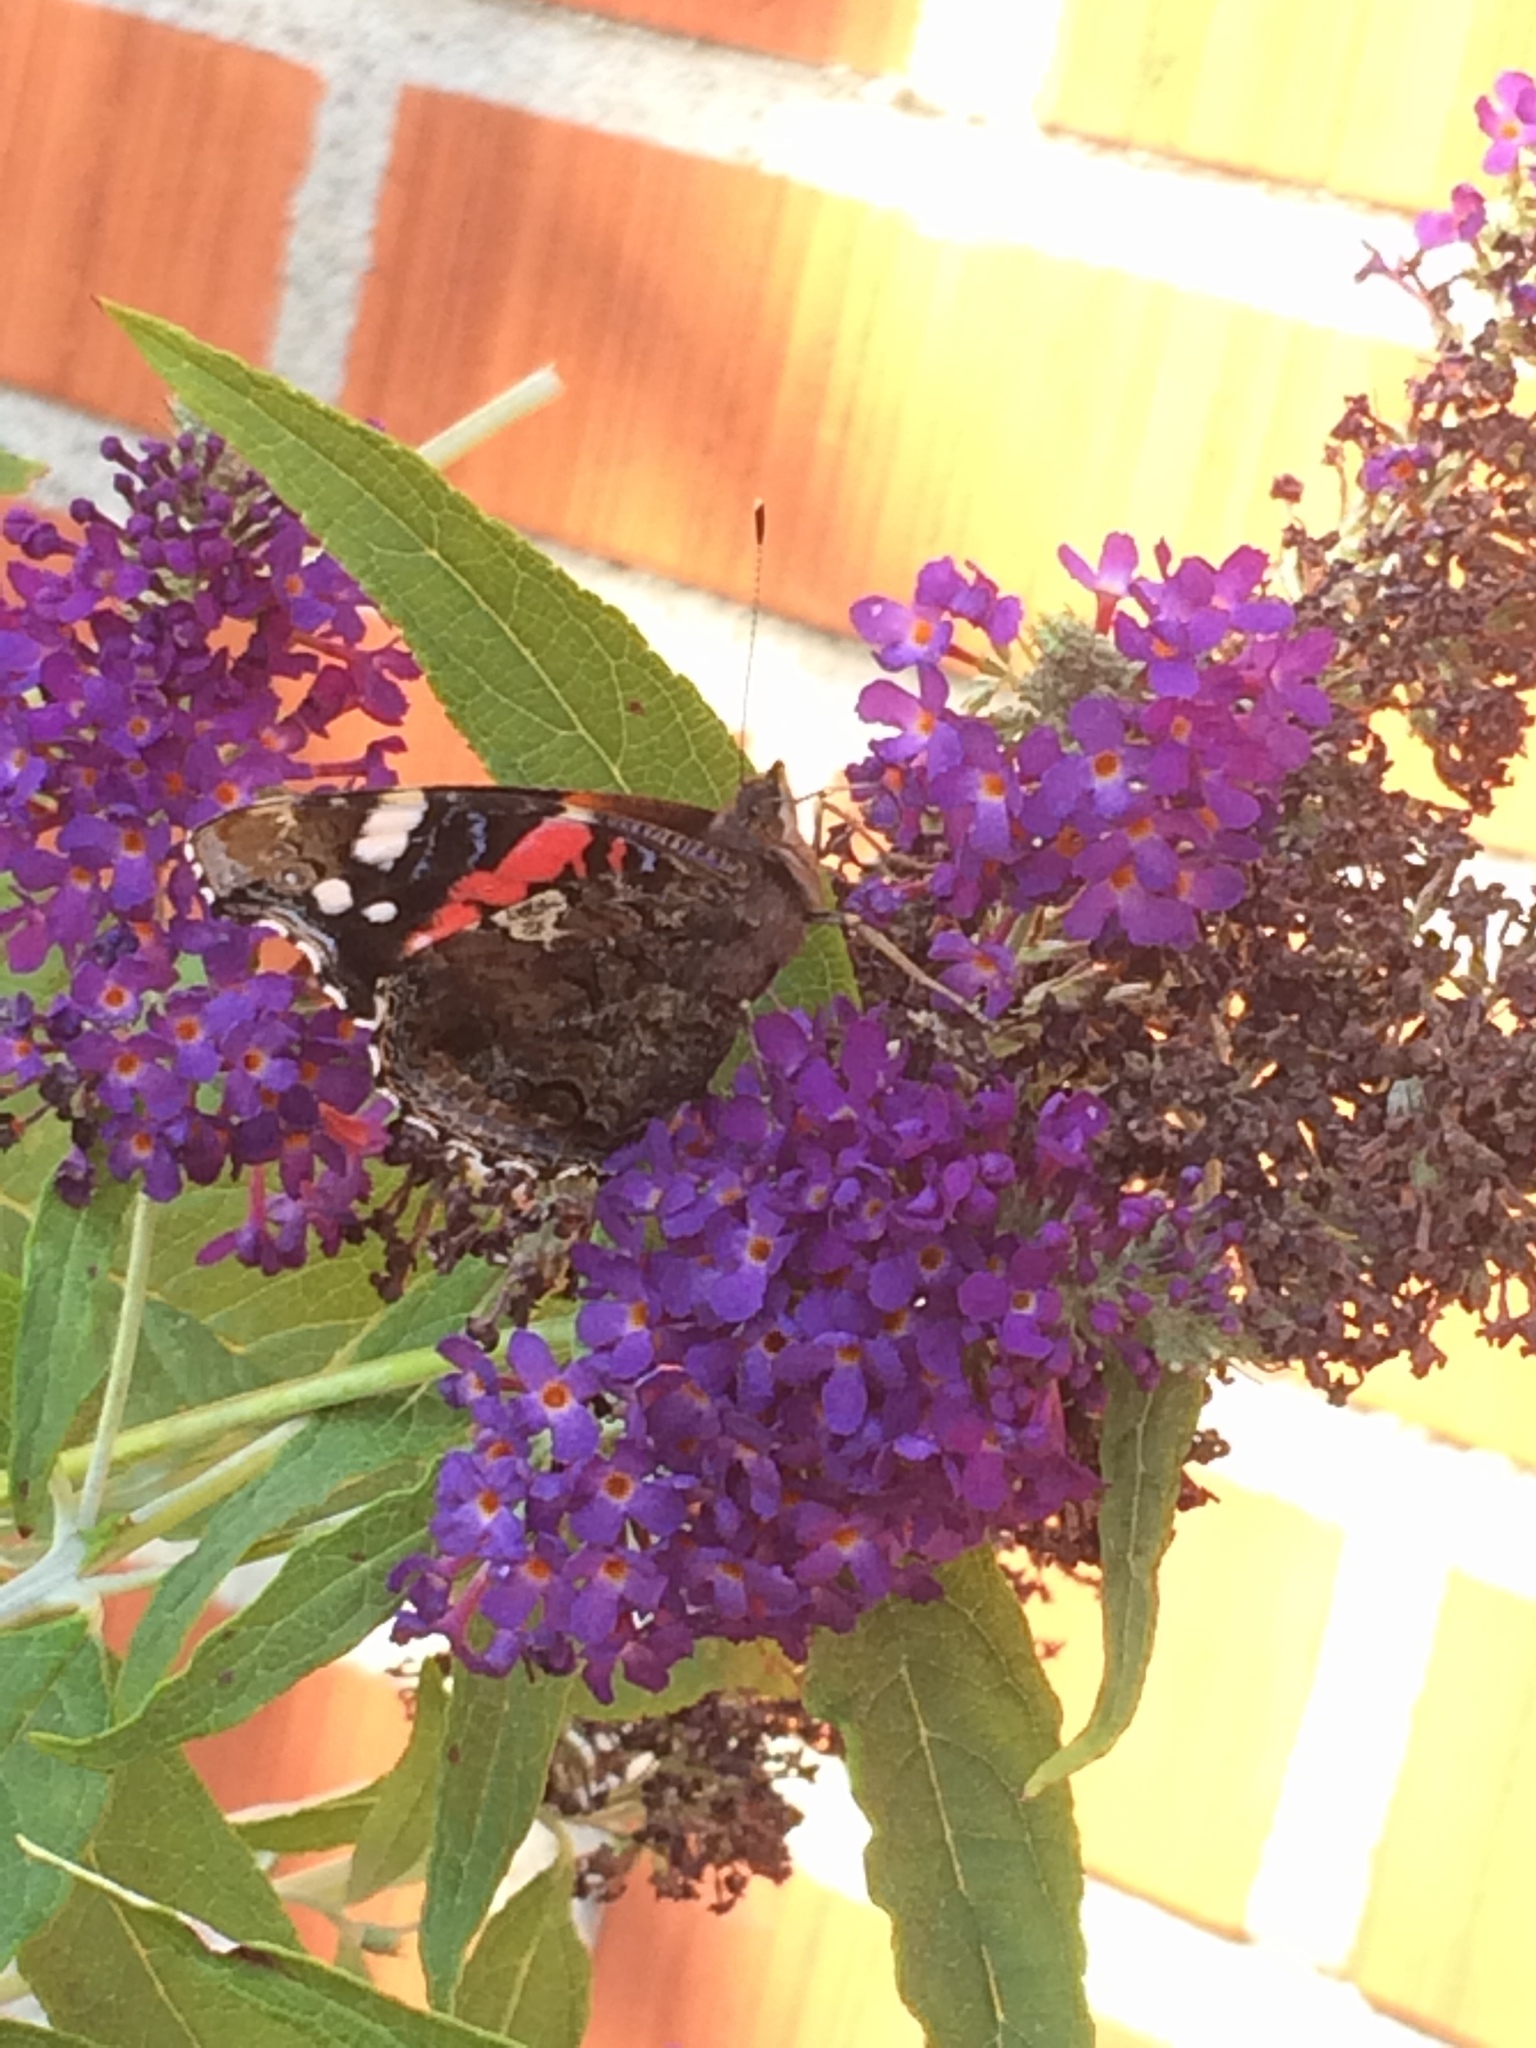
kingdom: Animalia
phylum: Arthropoda
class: Insecta
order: Lepidoptera
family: Nymphalidae
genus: Vanessa
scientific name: Vanessa atalanta
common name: Red admiral
